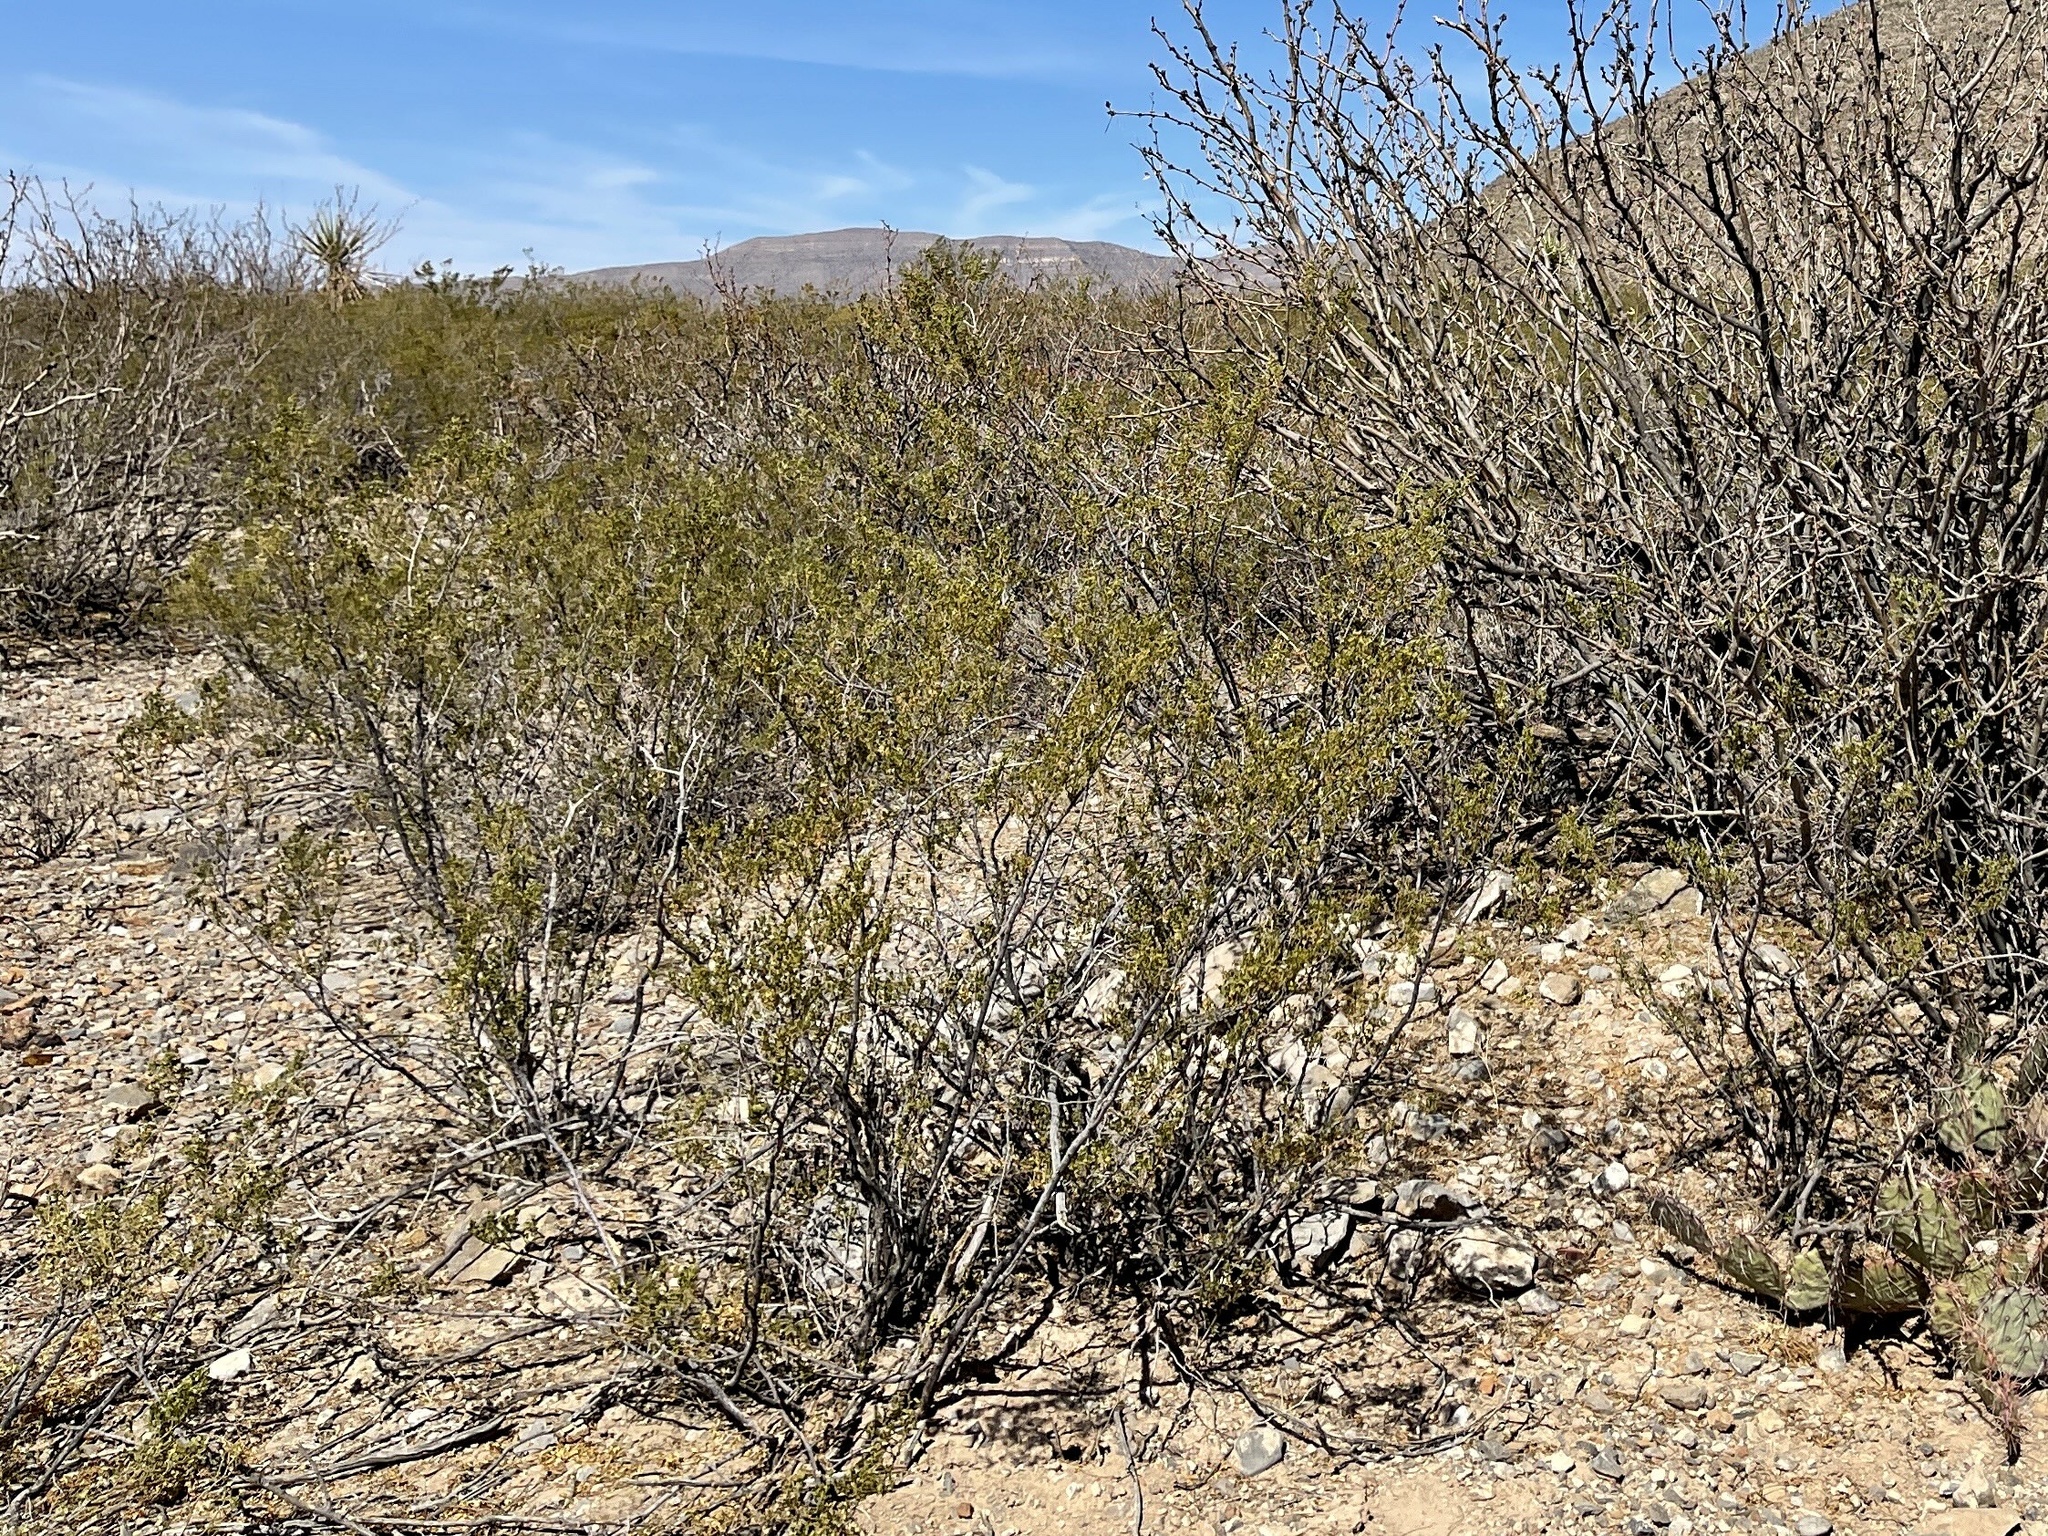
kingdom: Plantae
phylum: Tracheophyta
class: Magnoliopsida
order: Zygophyllales
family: Zygophyllaceae
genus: Larrea
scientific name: Larrea tridentata
